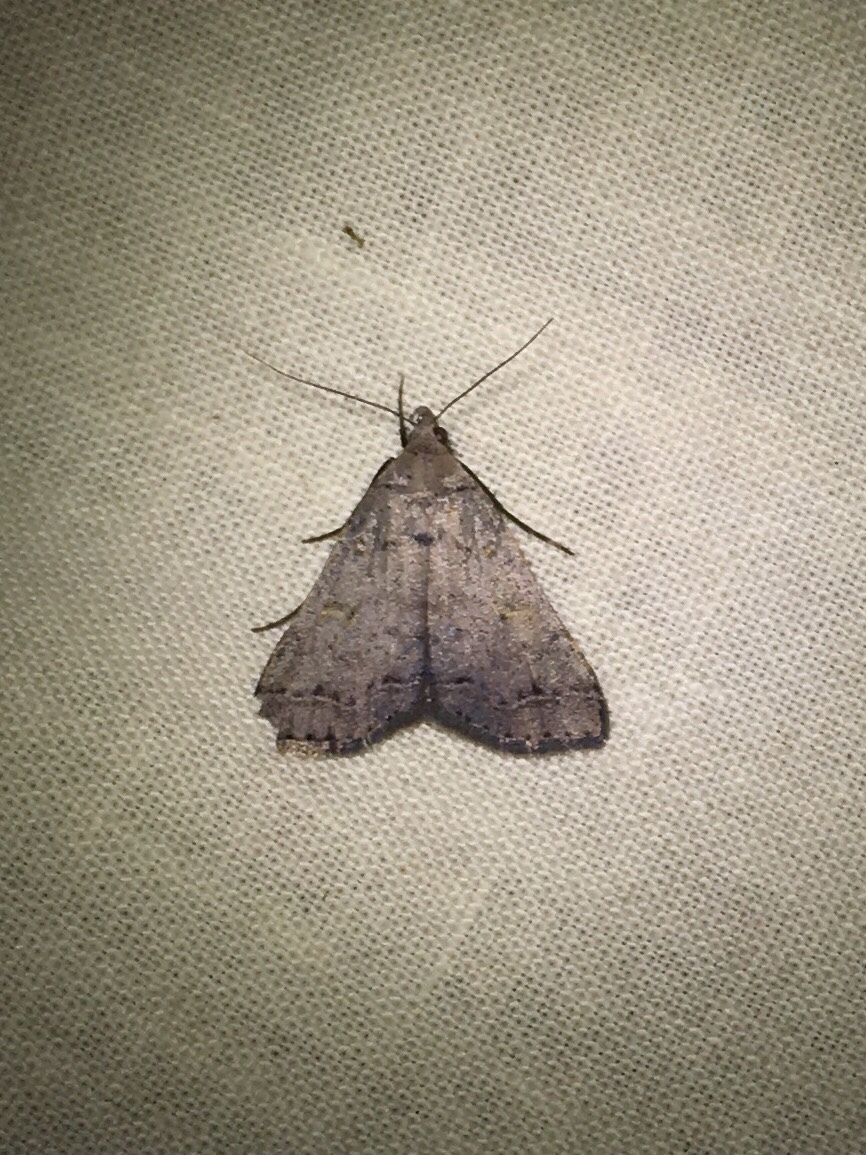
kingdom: Animalia
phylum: Arthropoda
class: Insecta
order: Lepidoptera
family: Erebidae
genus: Bleptina
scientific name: Bleptina caradrinalis
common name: Bent-winged owlet
